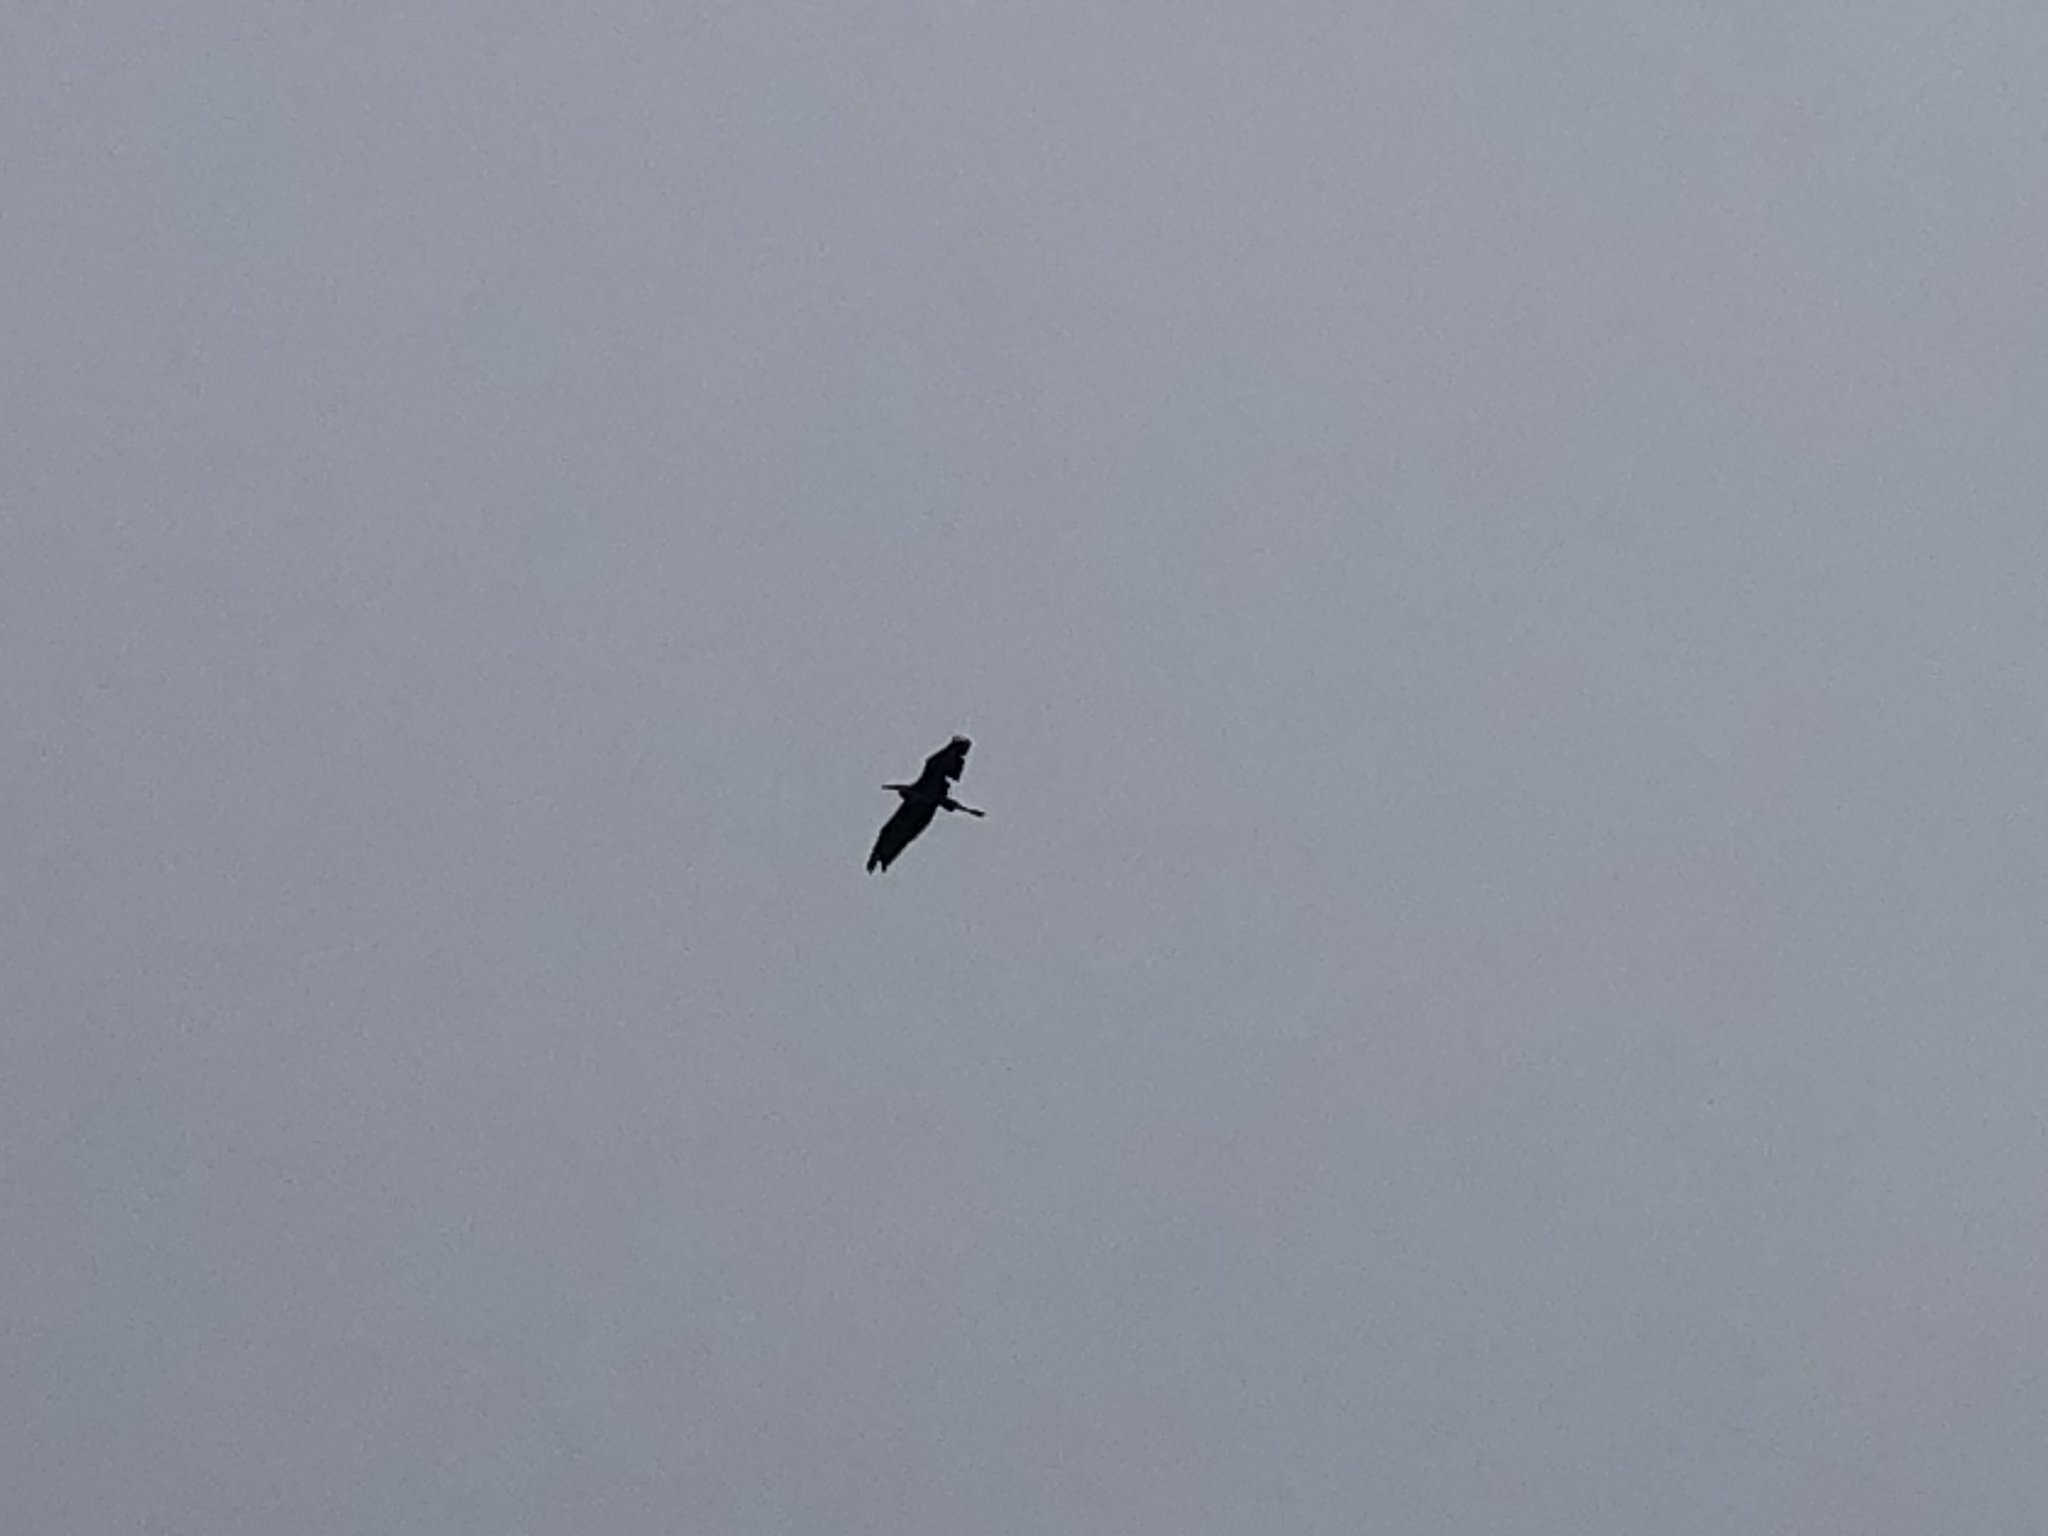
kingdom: Animalia
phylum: Chordata
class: Aves
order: Pelecaniformes
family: Ardeidae
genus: Ardea
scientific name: Ardea herodias
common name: Great blue heron
